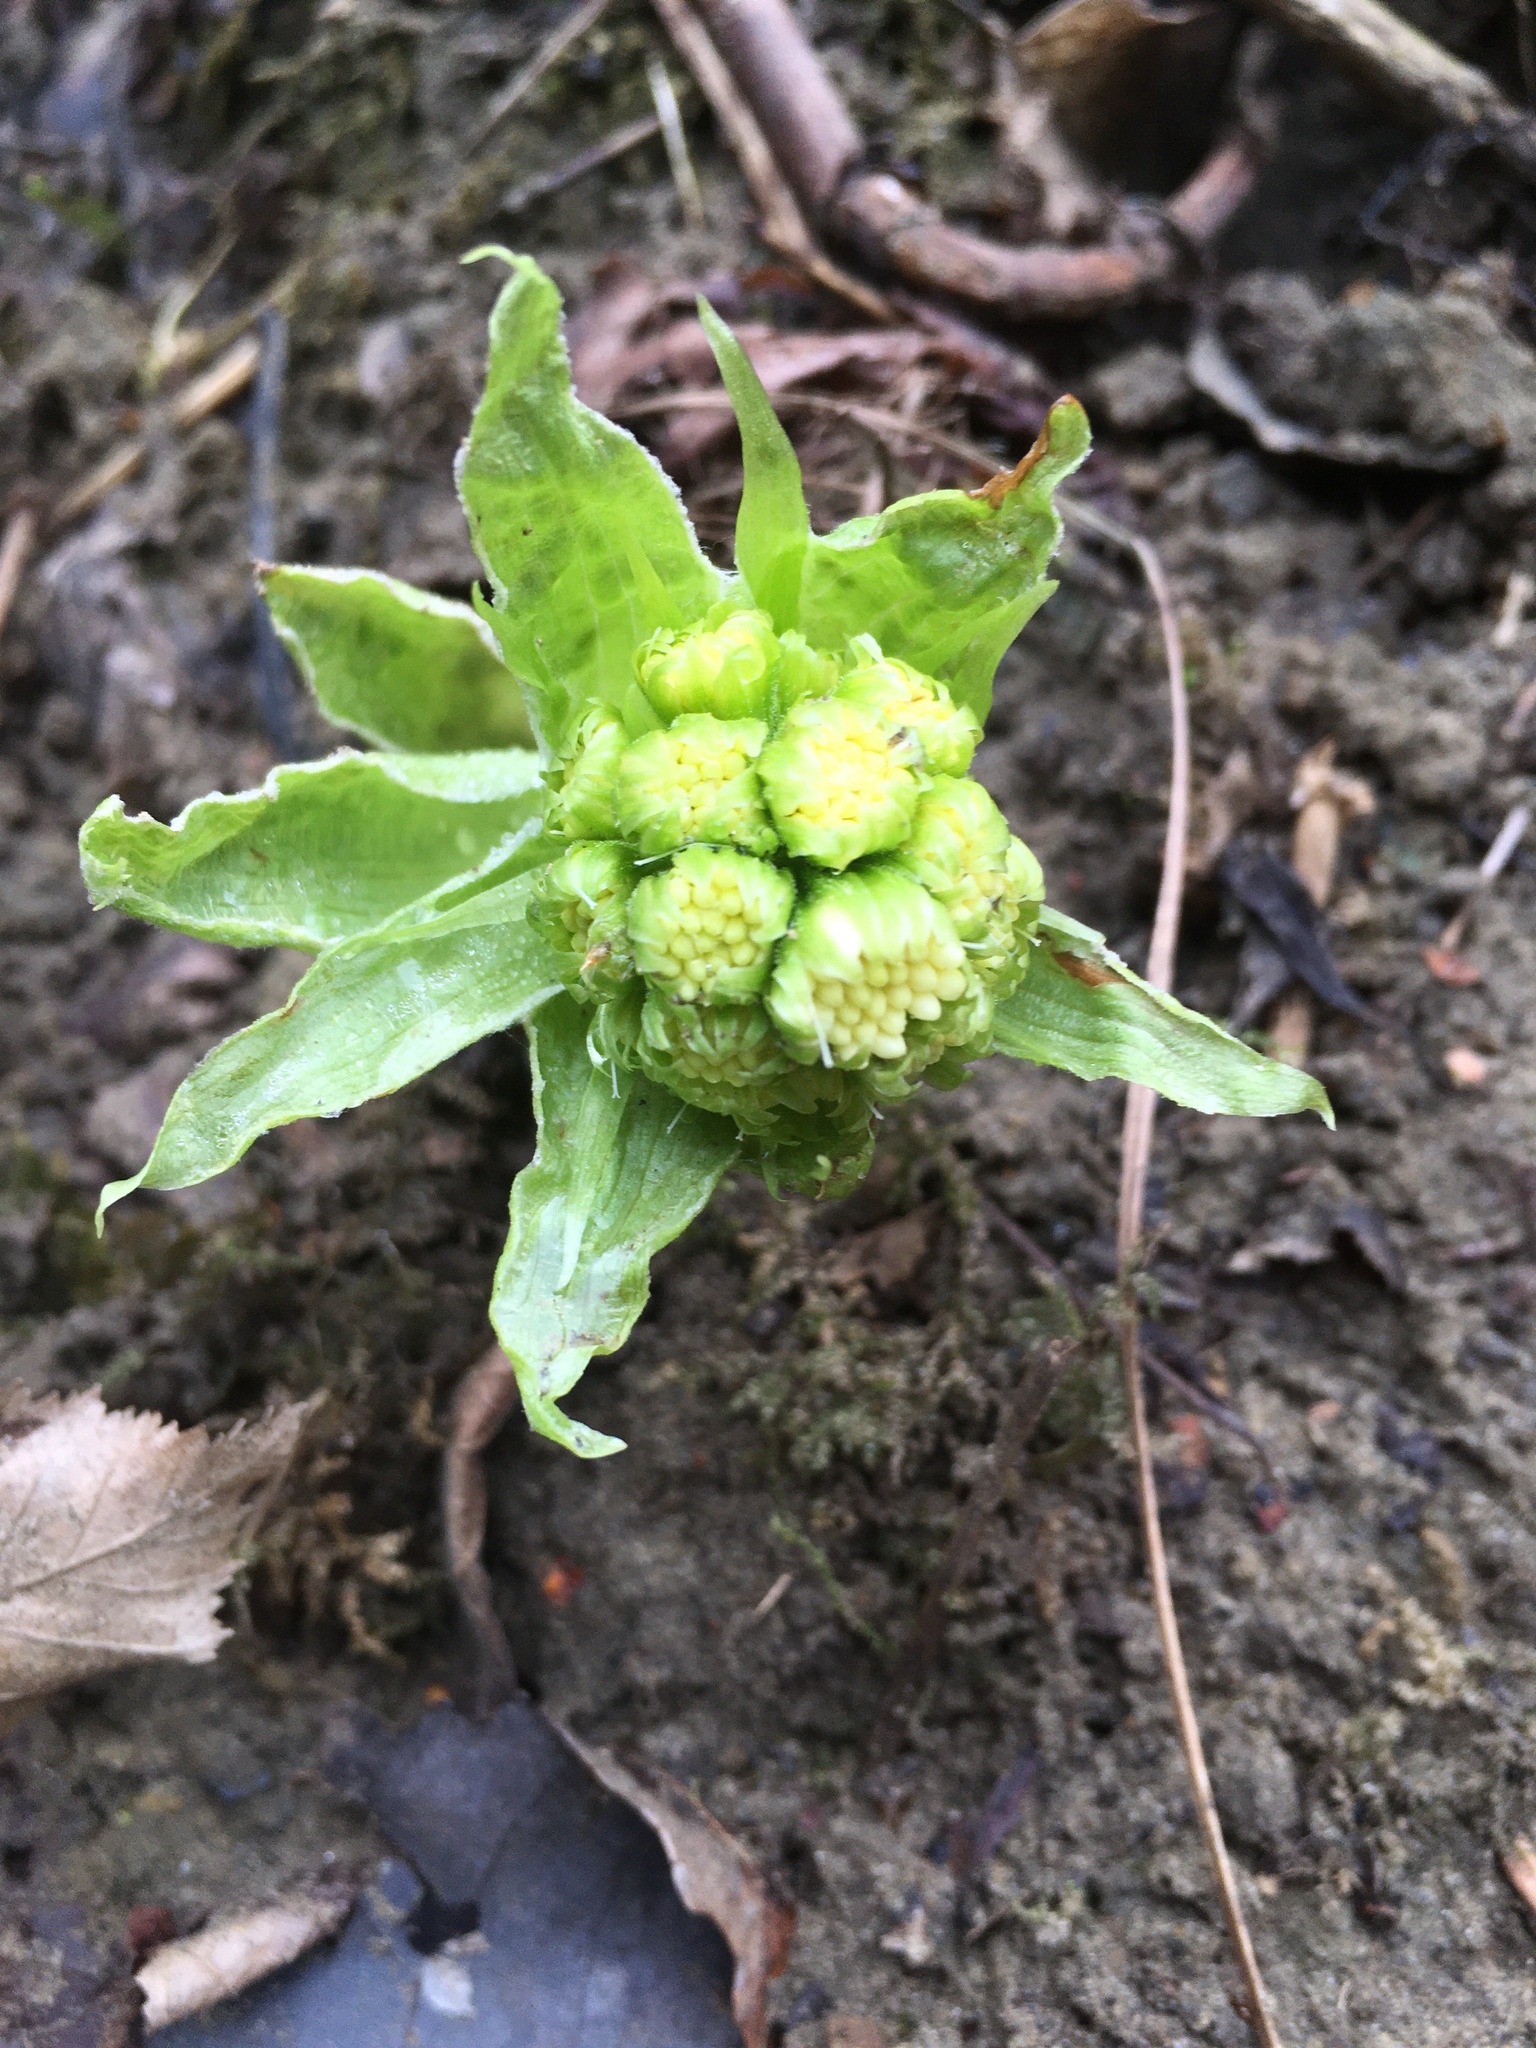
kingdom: Plantae
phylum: Tracheophyta
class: Magnoliopsida
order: Asterales
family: Asteraceae
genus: Petasites
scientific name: Petasites albus
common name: White butterbur
